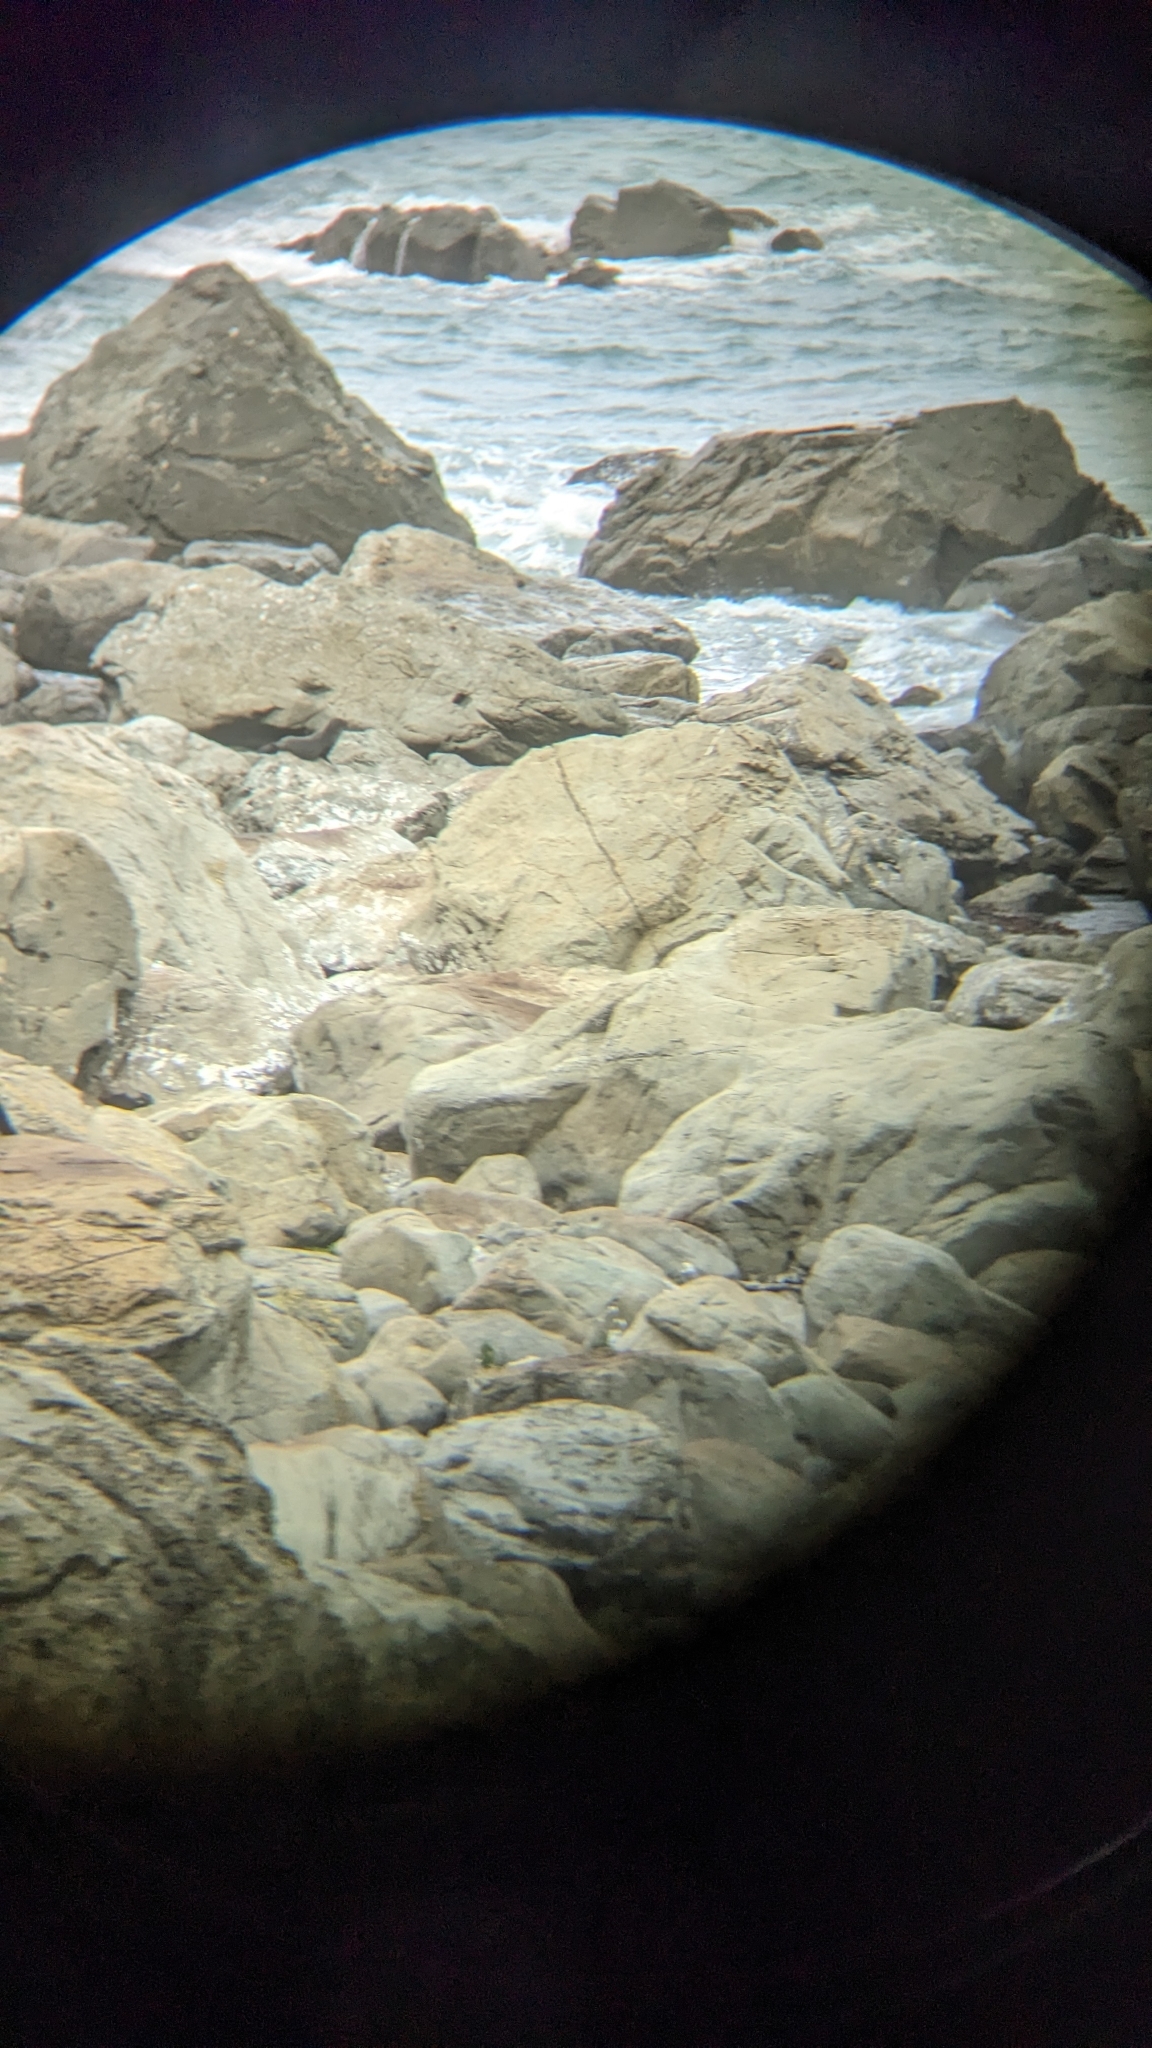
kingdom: Animalia
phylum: Chordata
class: Mammalia
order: Carnivora
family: Otariidae
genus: Arctocephalus
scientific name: Arctocephalus forsteri
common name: New zealand fur seal
